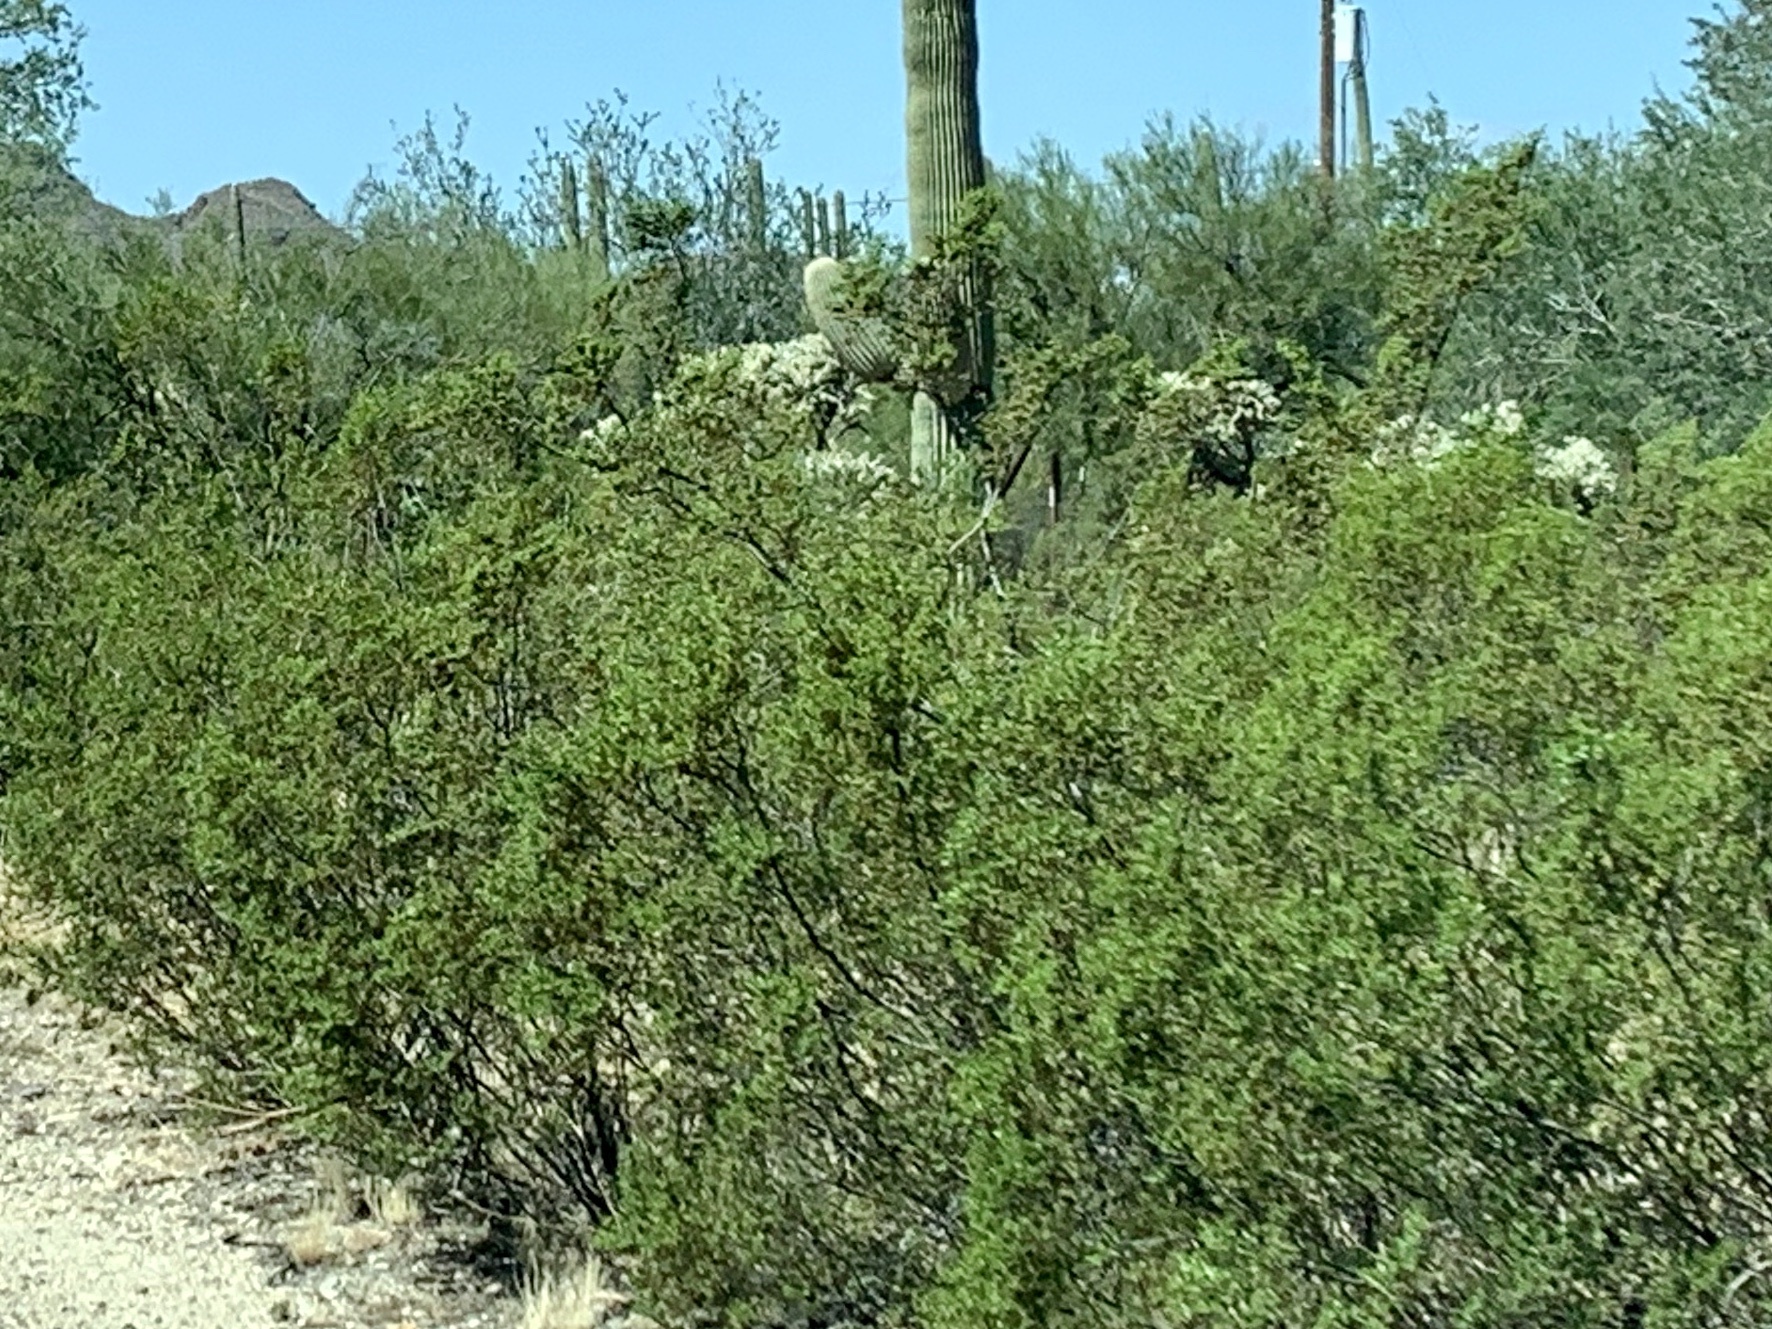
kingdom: Plantae
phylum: Tracheophyta
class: Magnoliopsida
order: Zygophyllales
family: Zygophyllaceae
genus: Larrea
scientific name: Larrea tridentata
